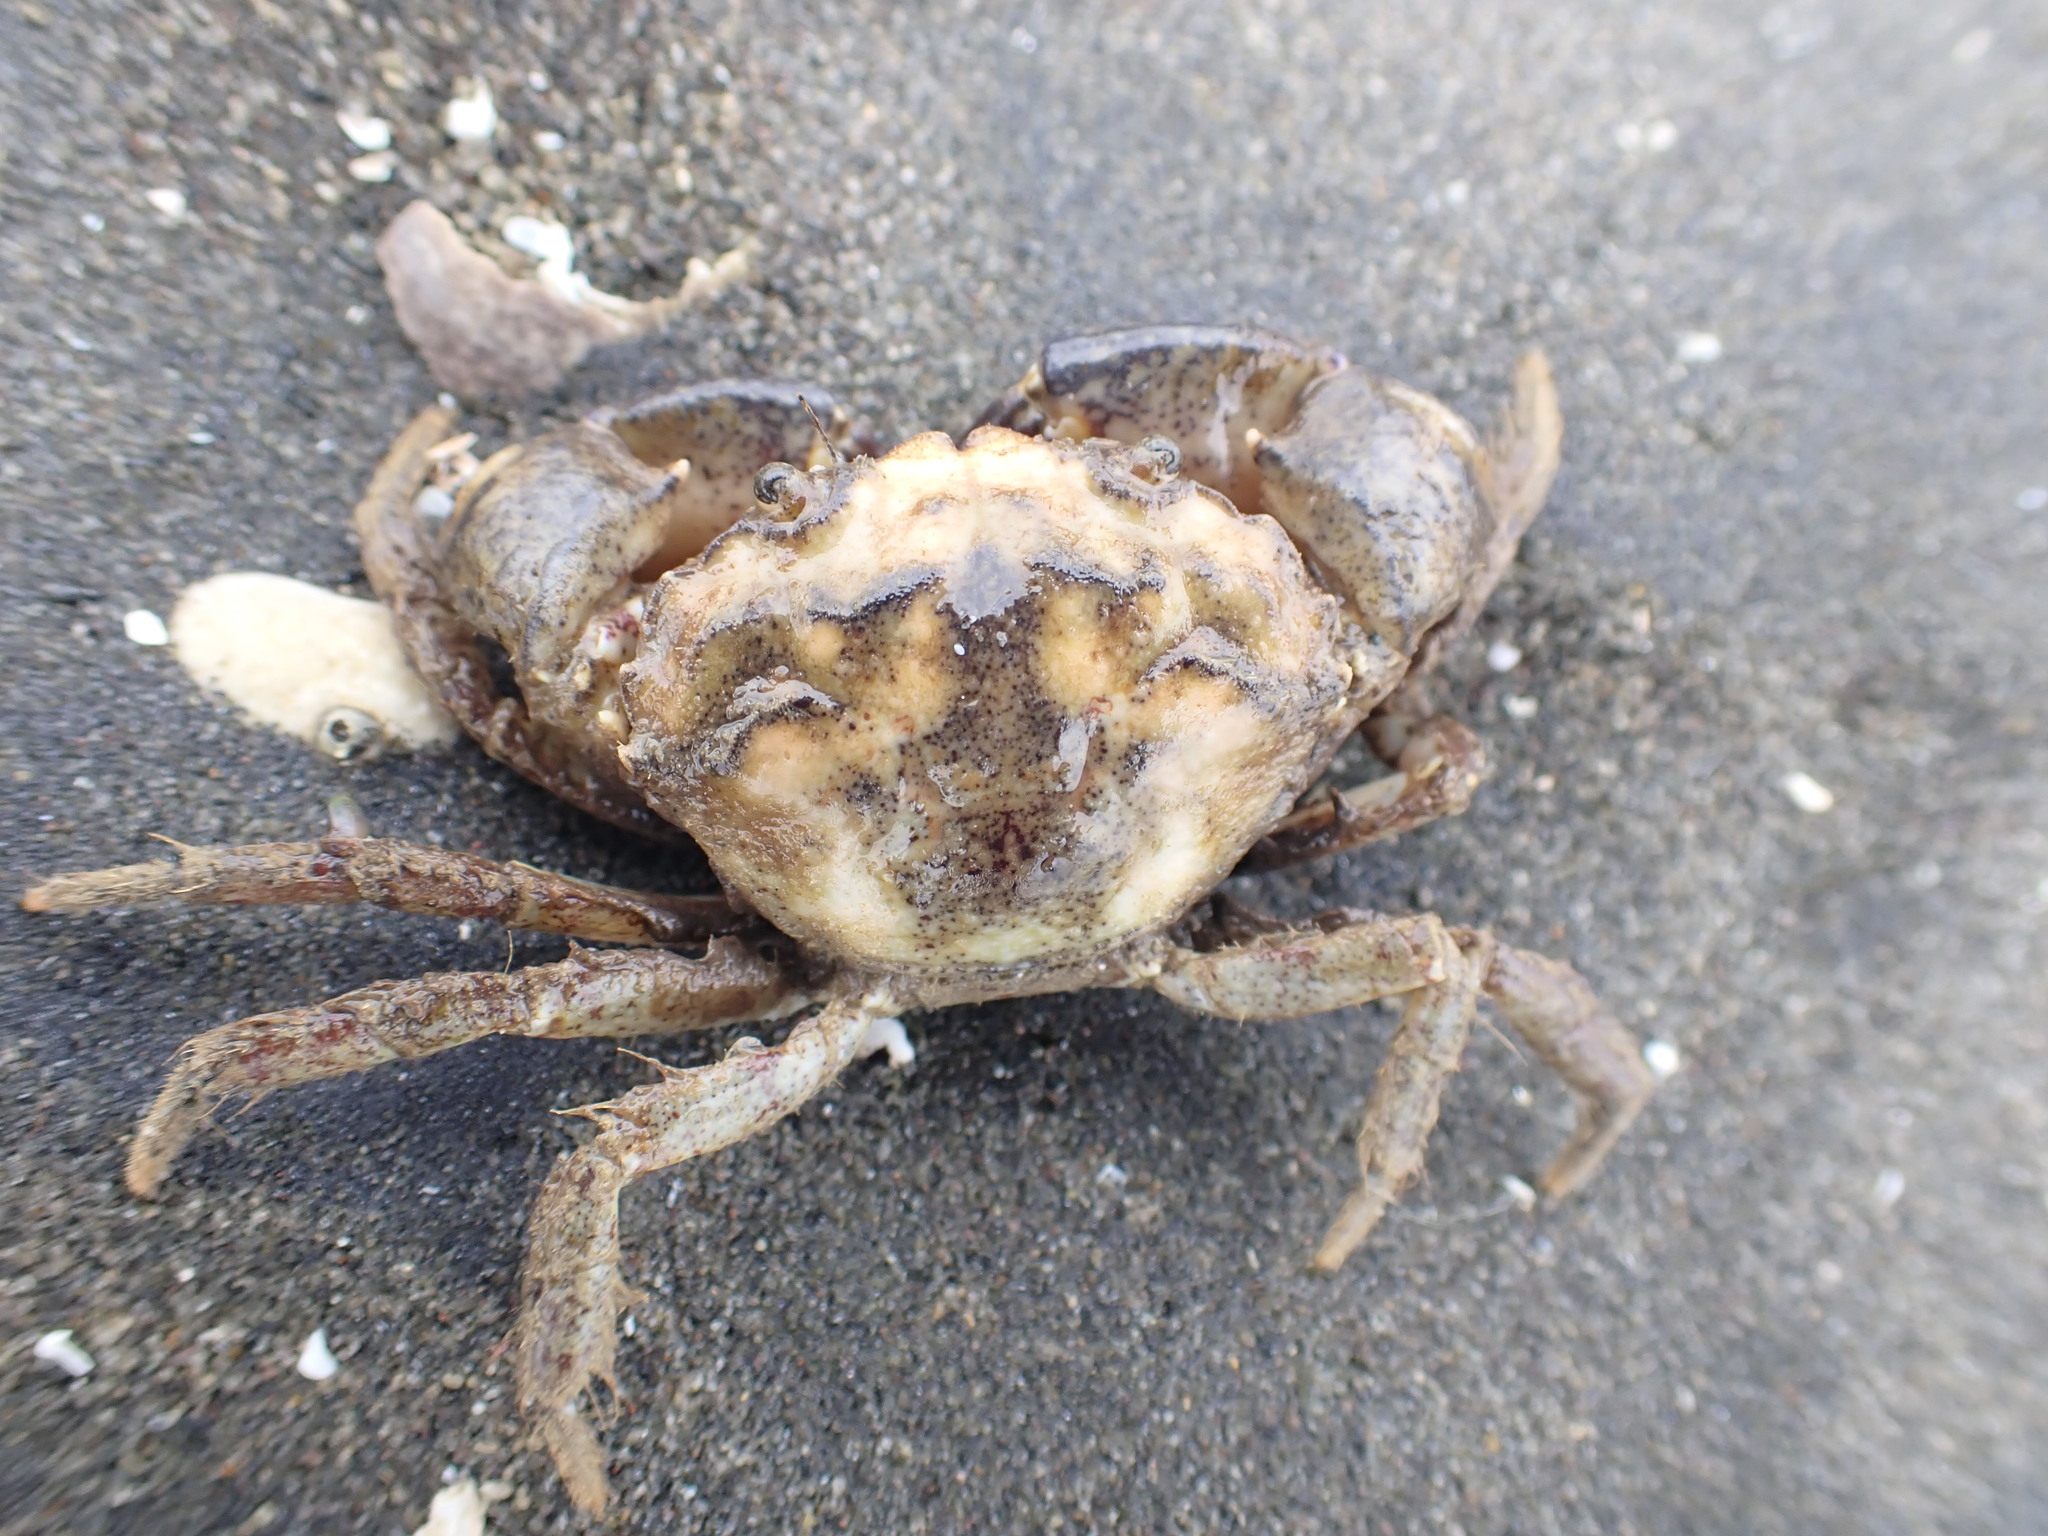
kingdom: Animalia
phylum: Arthropoda
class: Malacostraca
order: Decapoda
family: Pilumnidae
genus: Pilumnopeus
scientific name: Pilumnopeus serratifrons
